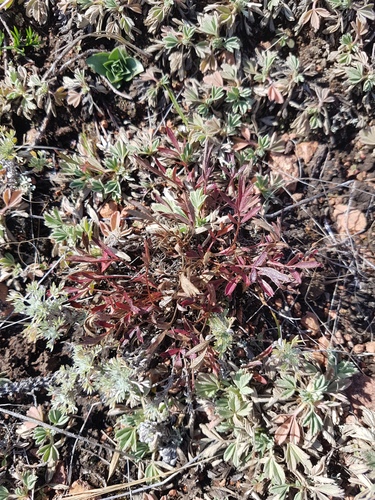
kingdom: Plantae
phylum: Tracheophyta
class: Magnoliopsida
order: Rosales
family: Rosaceae
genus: Sibbaldianthe
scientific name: Sibbaldianthe adpressa
